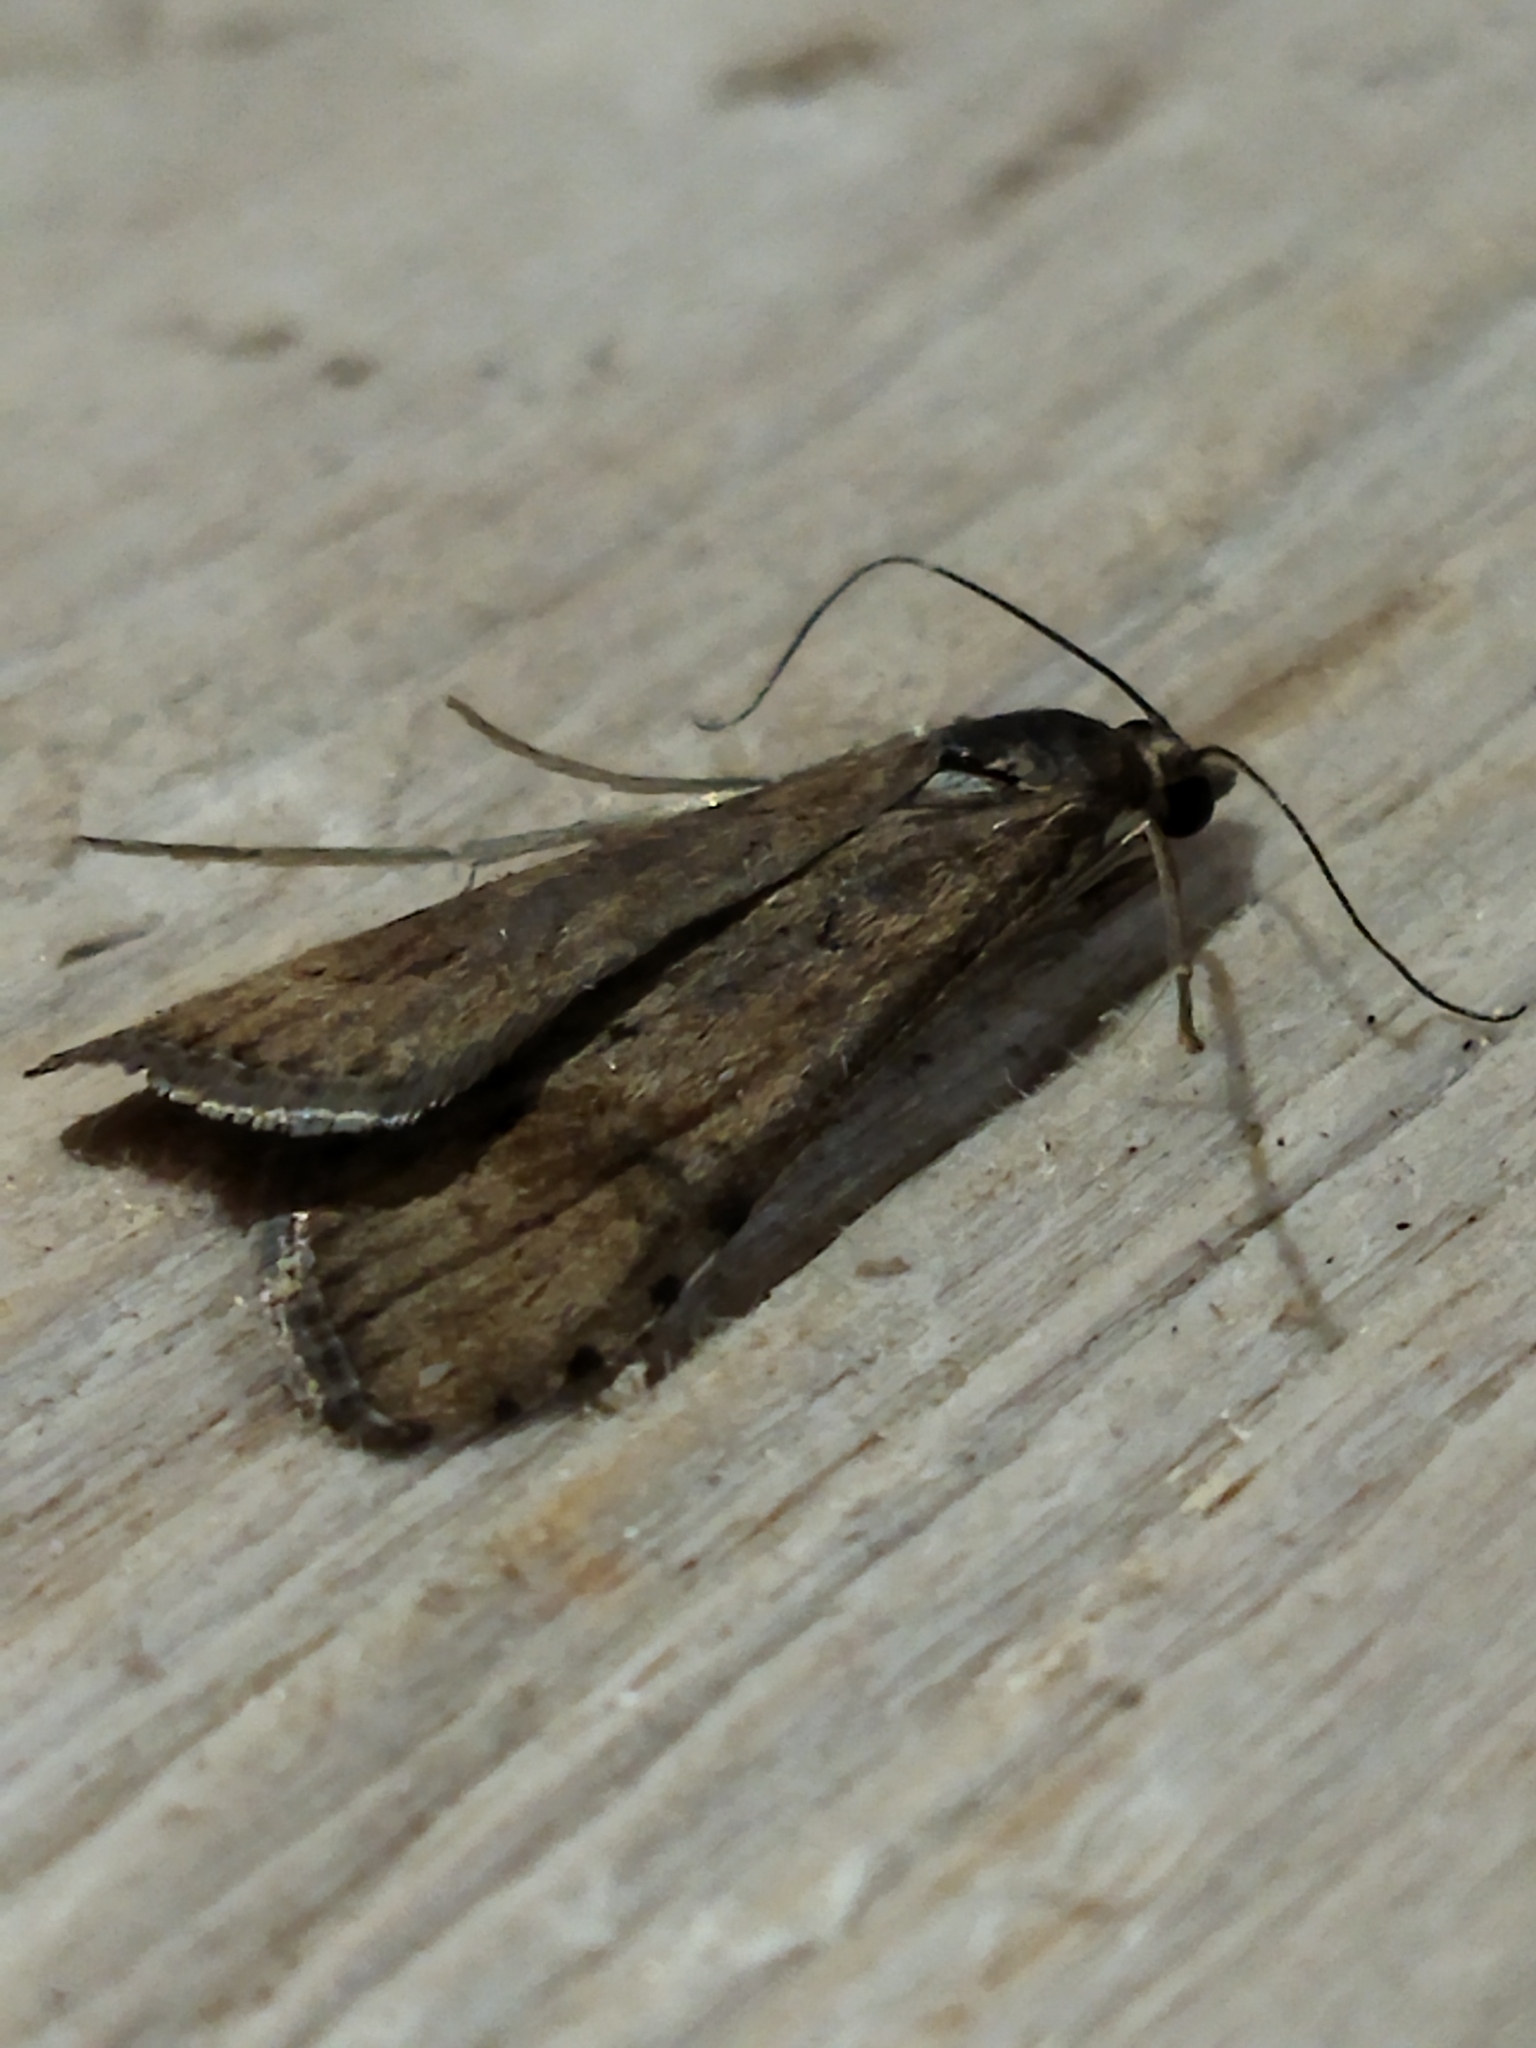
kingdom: Animalia
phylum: Arthropoda
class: Insecta
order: Lepidoptera
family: Crambidae
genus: Nomophila
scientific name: Nomophila noctuella
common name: Rush veneer
